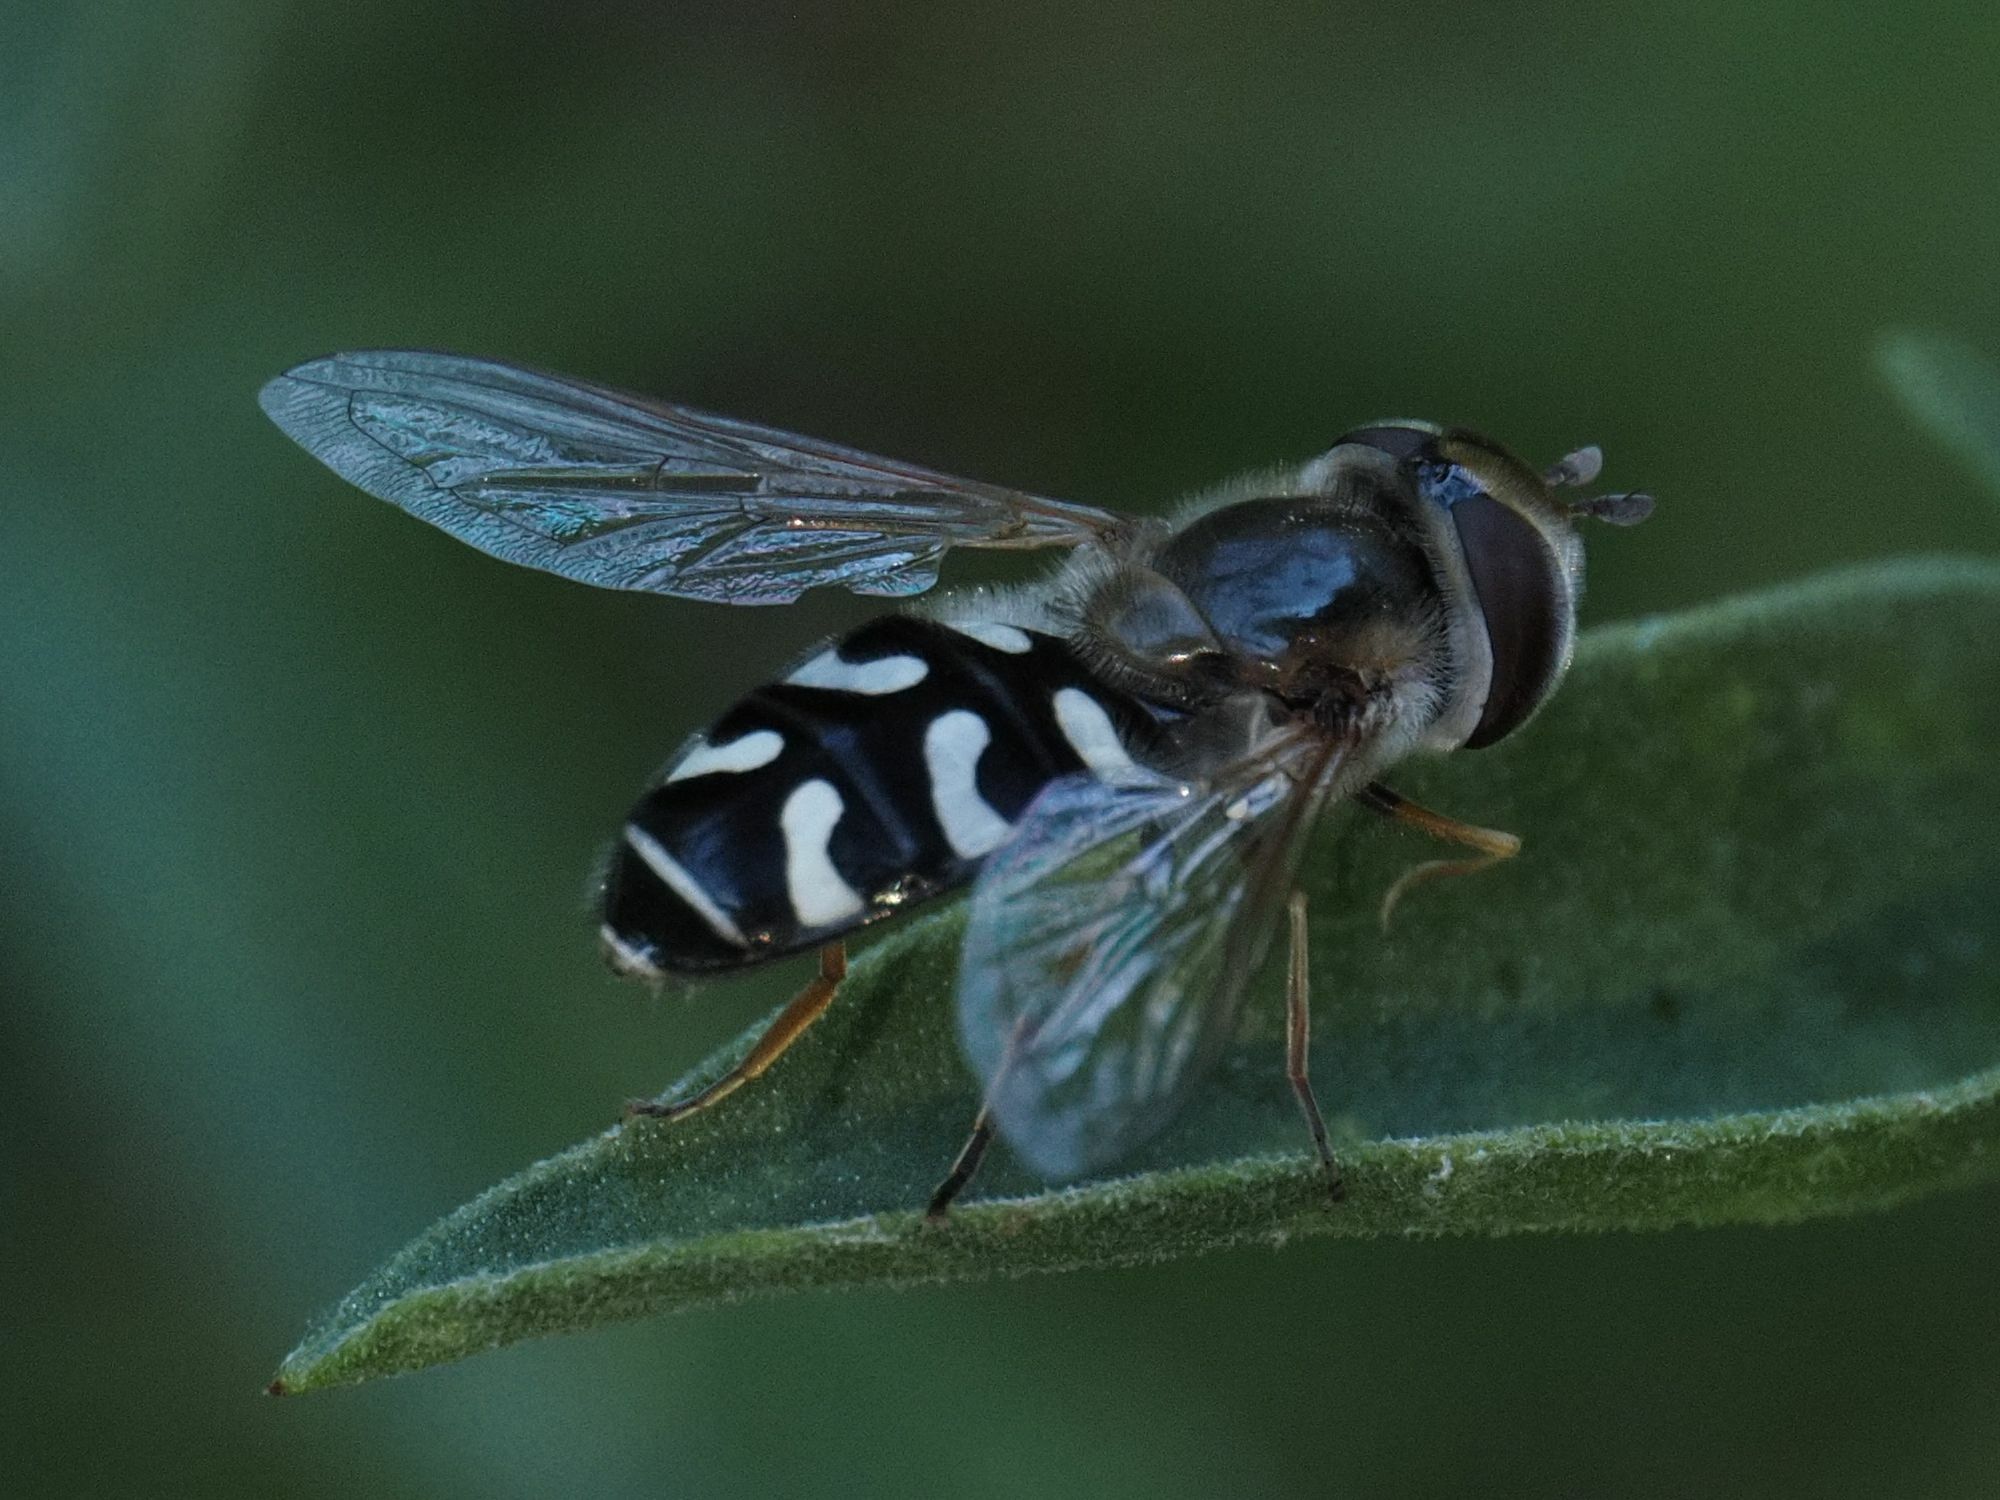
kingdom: Animalia
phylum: Arthropoda
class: Insecta
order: Diptera
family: Syrphidae
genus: Scaeva
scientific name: Scaeva pyrastri
